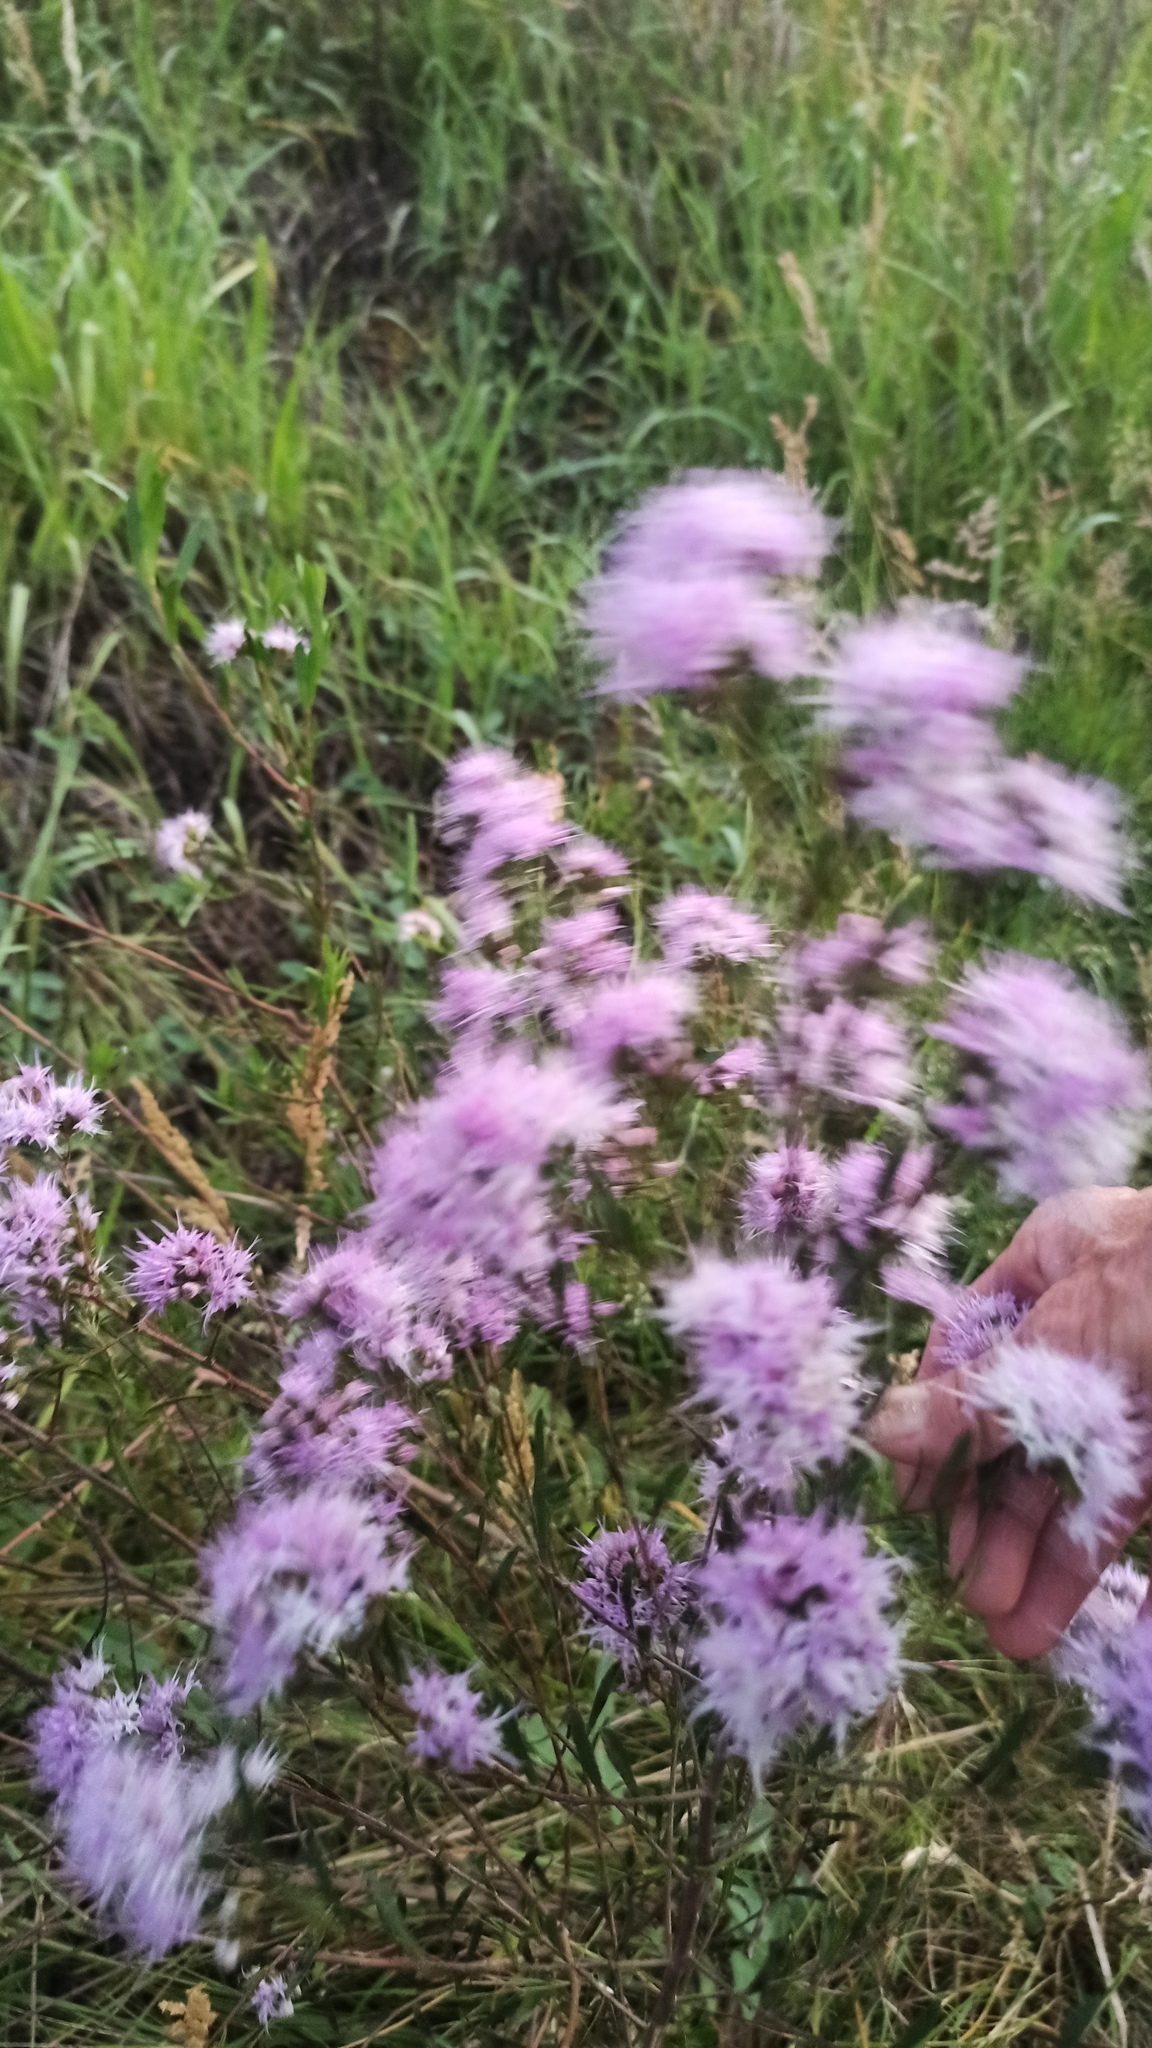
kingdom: Plantae
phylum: Tracheophyta
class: Magnoliopsida
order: Asterales
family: Asteraceae
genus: Vernonanthura
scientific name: Vernonanthura montevidensis
